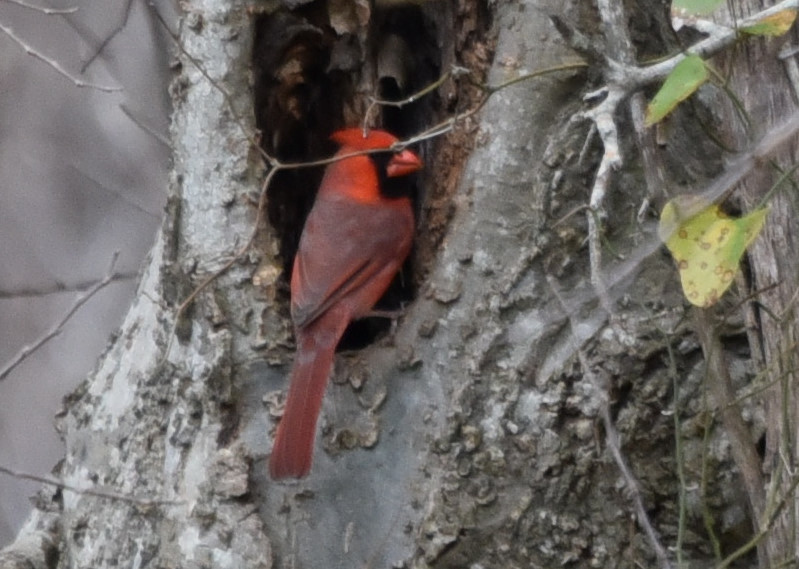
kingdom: Animalia
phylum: Chordata
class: Aves
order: Passeriformes
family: Cardinalidae
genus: Cardinalis
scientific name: Cardinalis cardinalis
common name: Northern cardinal
